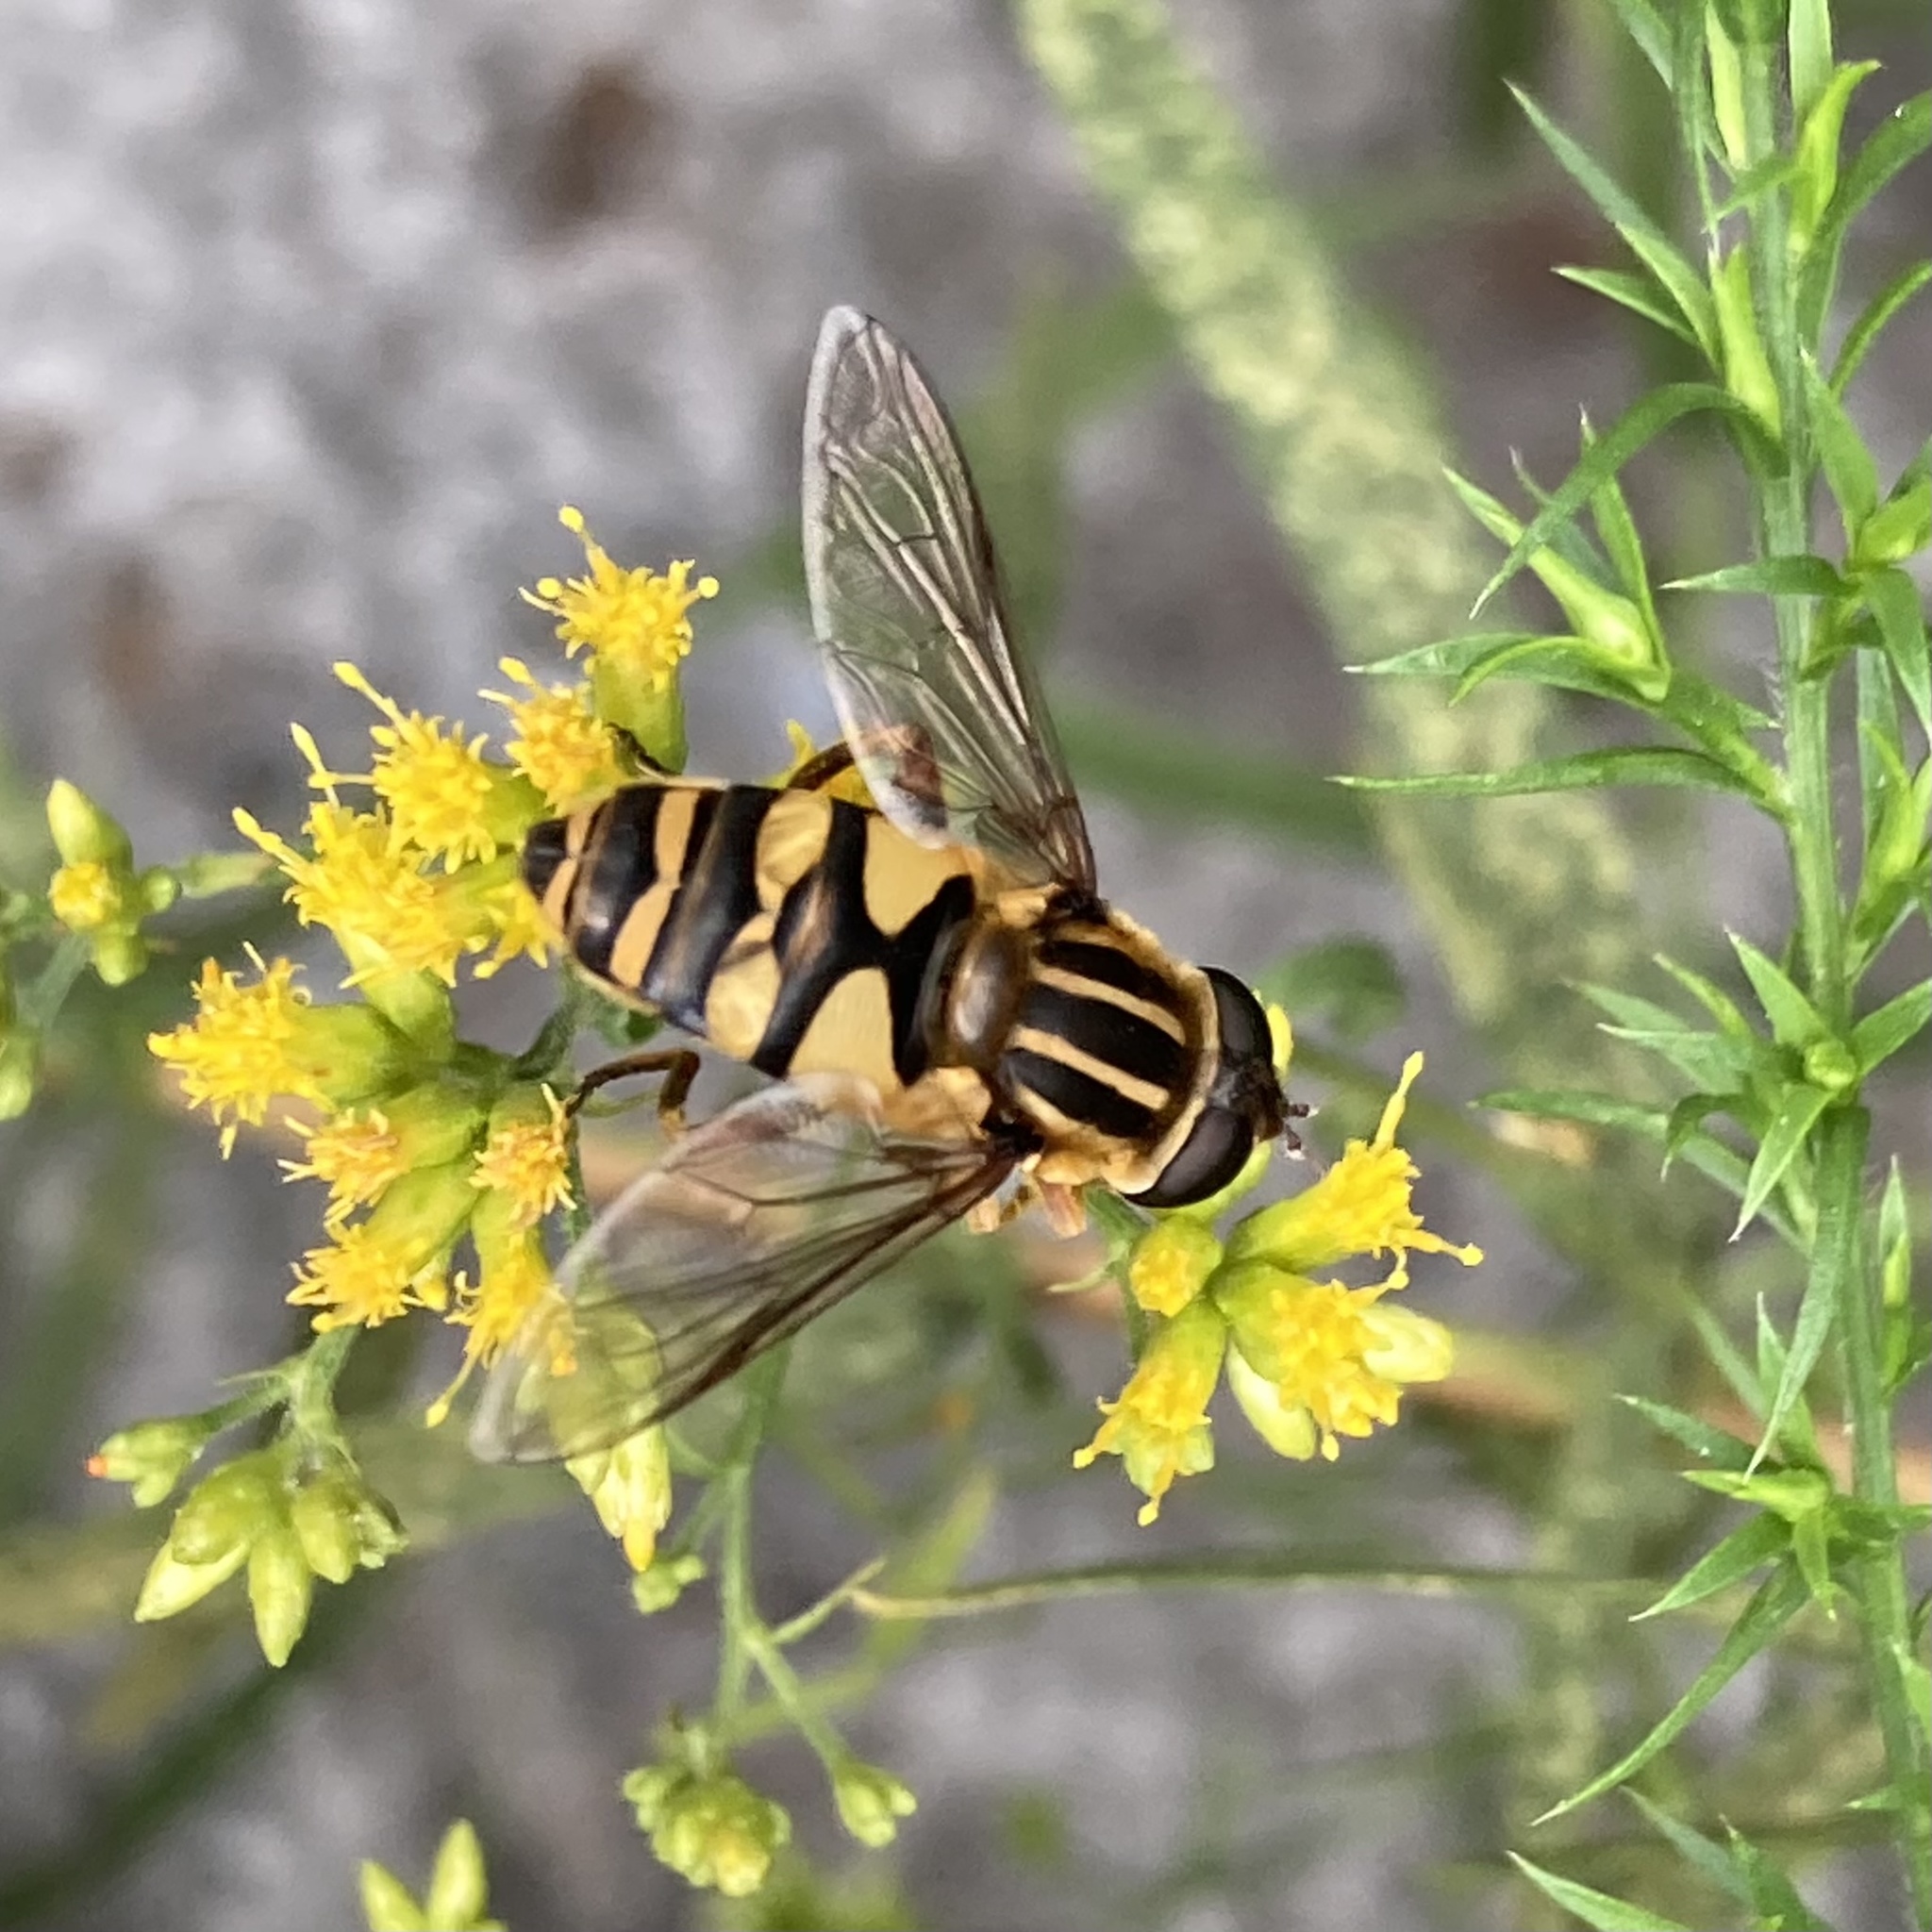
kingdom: Animalia
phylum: Arthropoda
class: Insecta
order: Diptera
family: Syrphidae
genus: Helophilus
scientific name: Helophilus fasciatus
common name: Narrow-headed marsh fly
